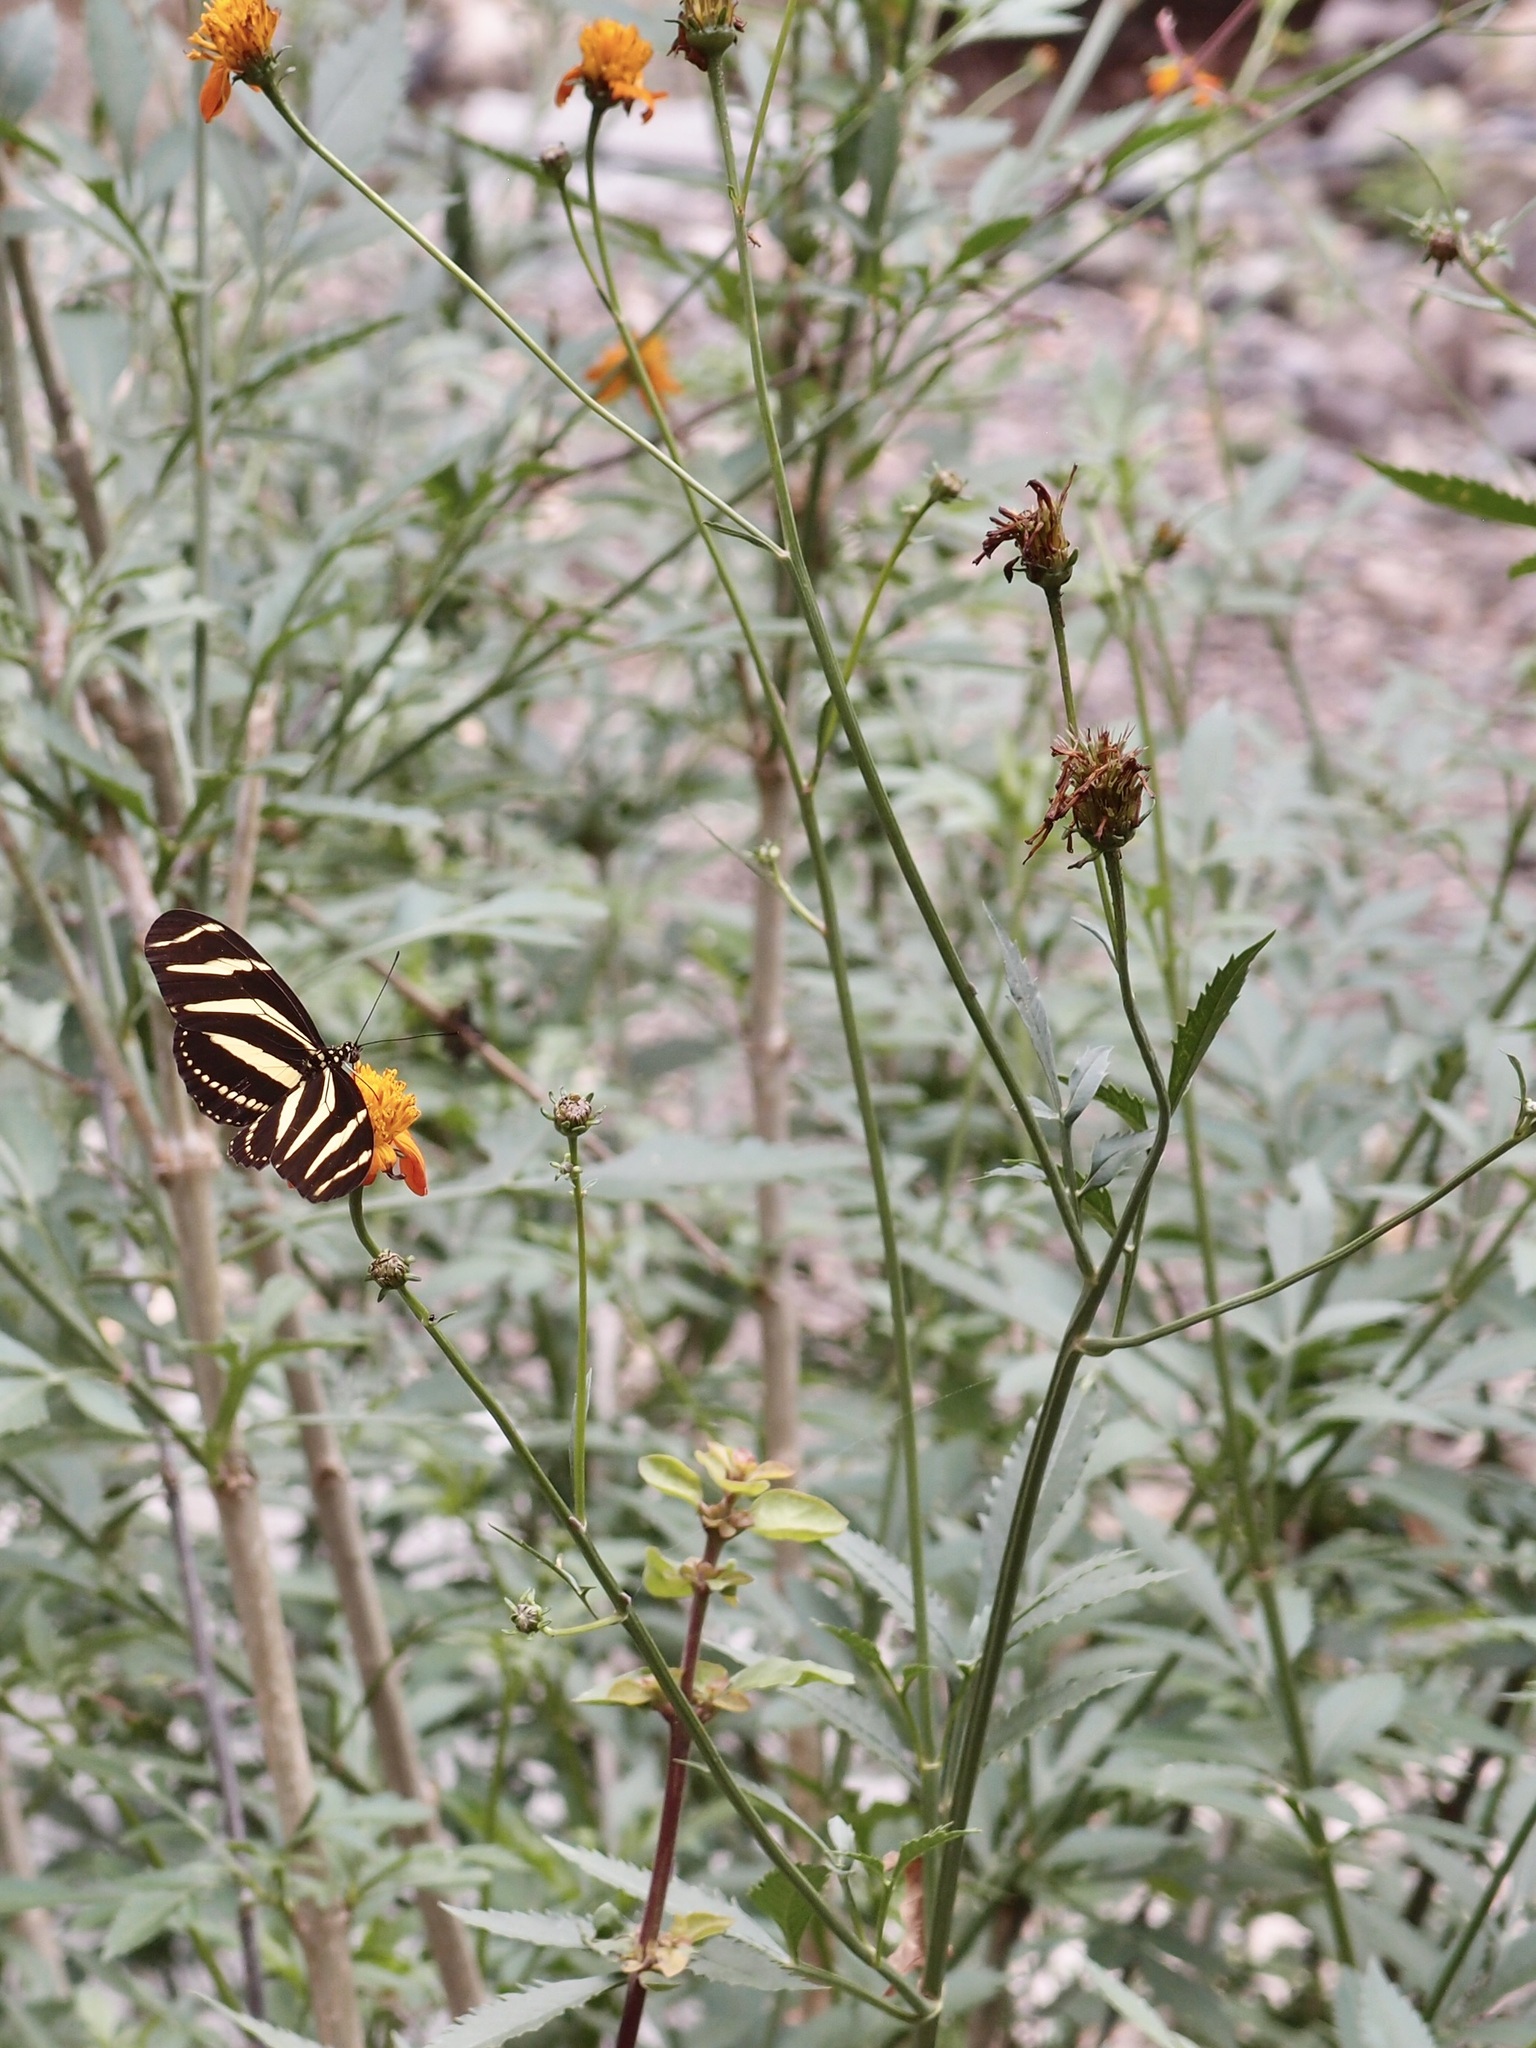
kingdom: Plantae
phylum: Tracheophyta
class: Magnoliopsida
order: Asterales
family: Asteraceae
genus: Bidens
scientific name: Bidens sambucifolia
